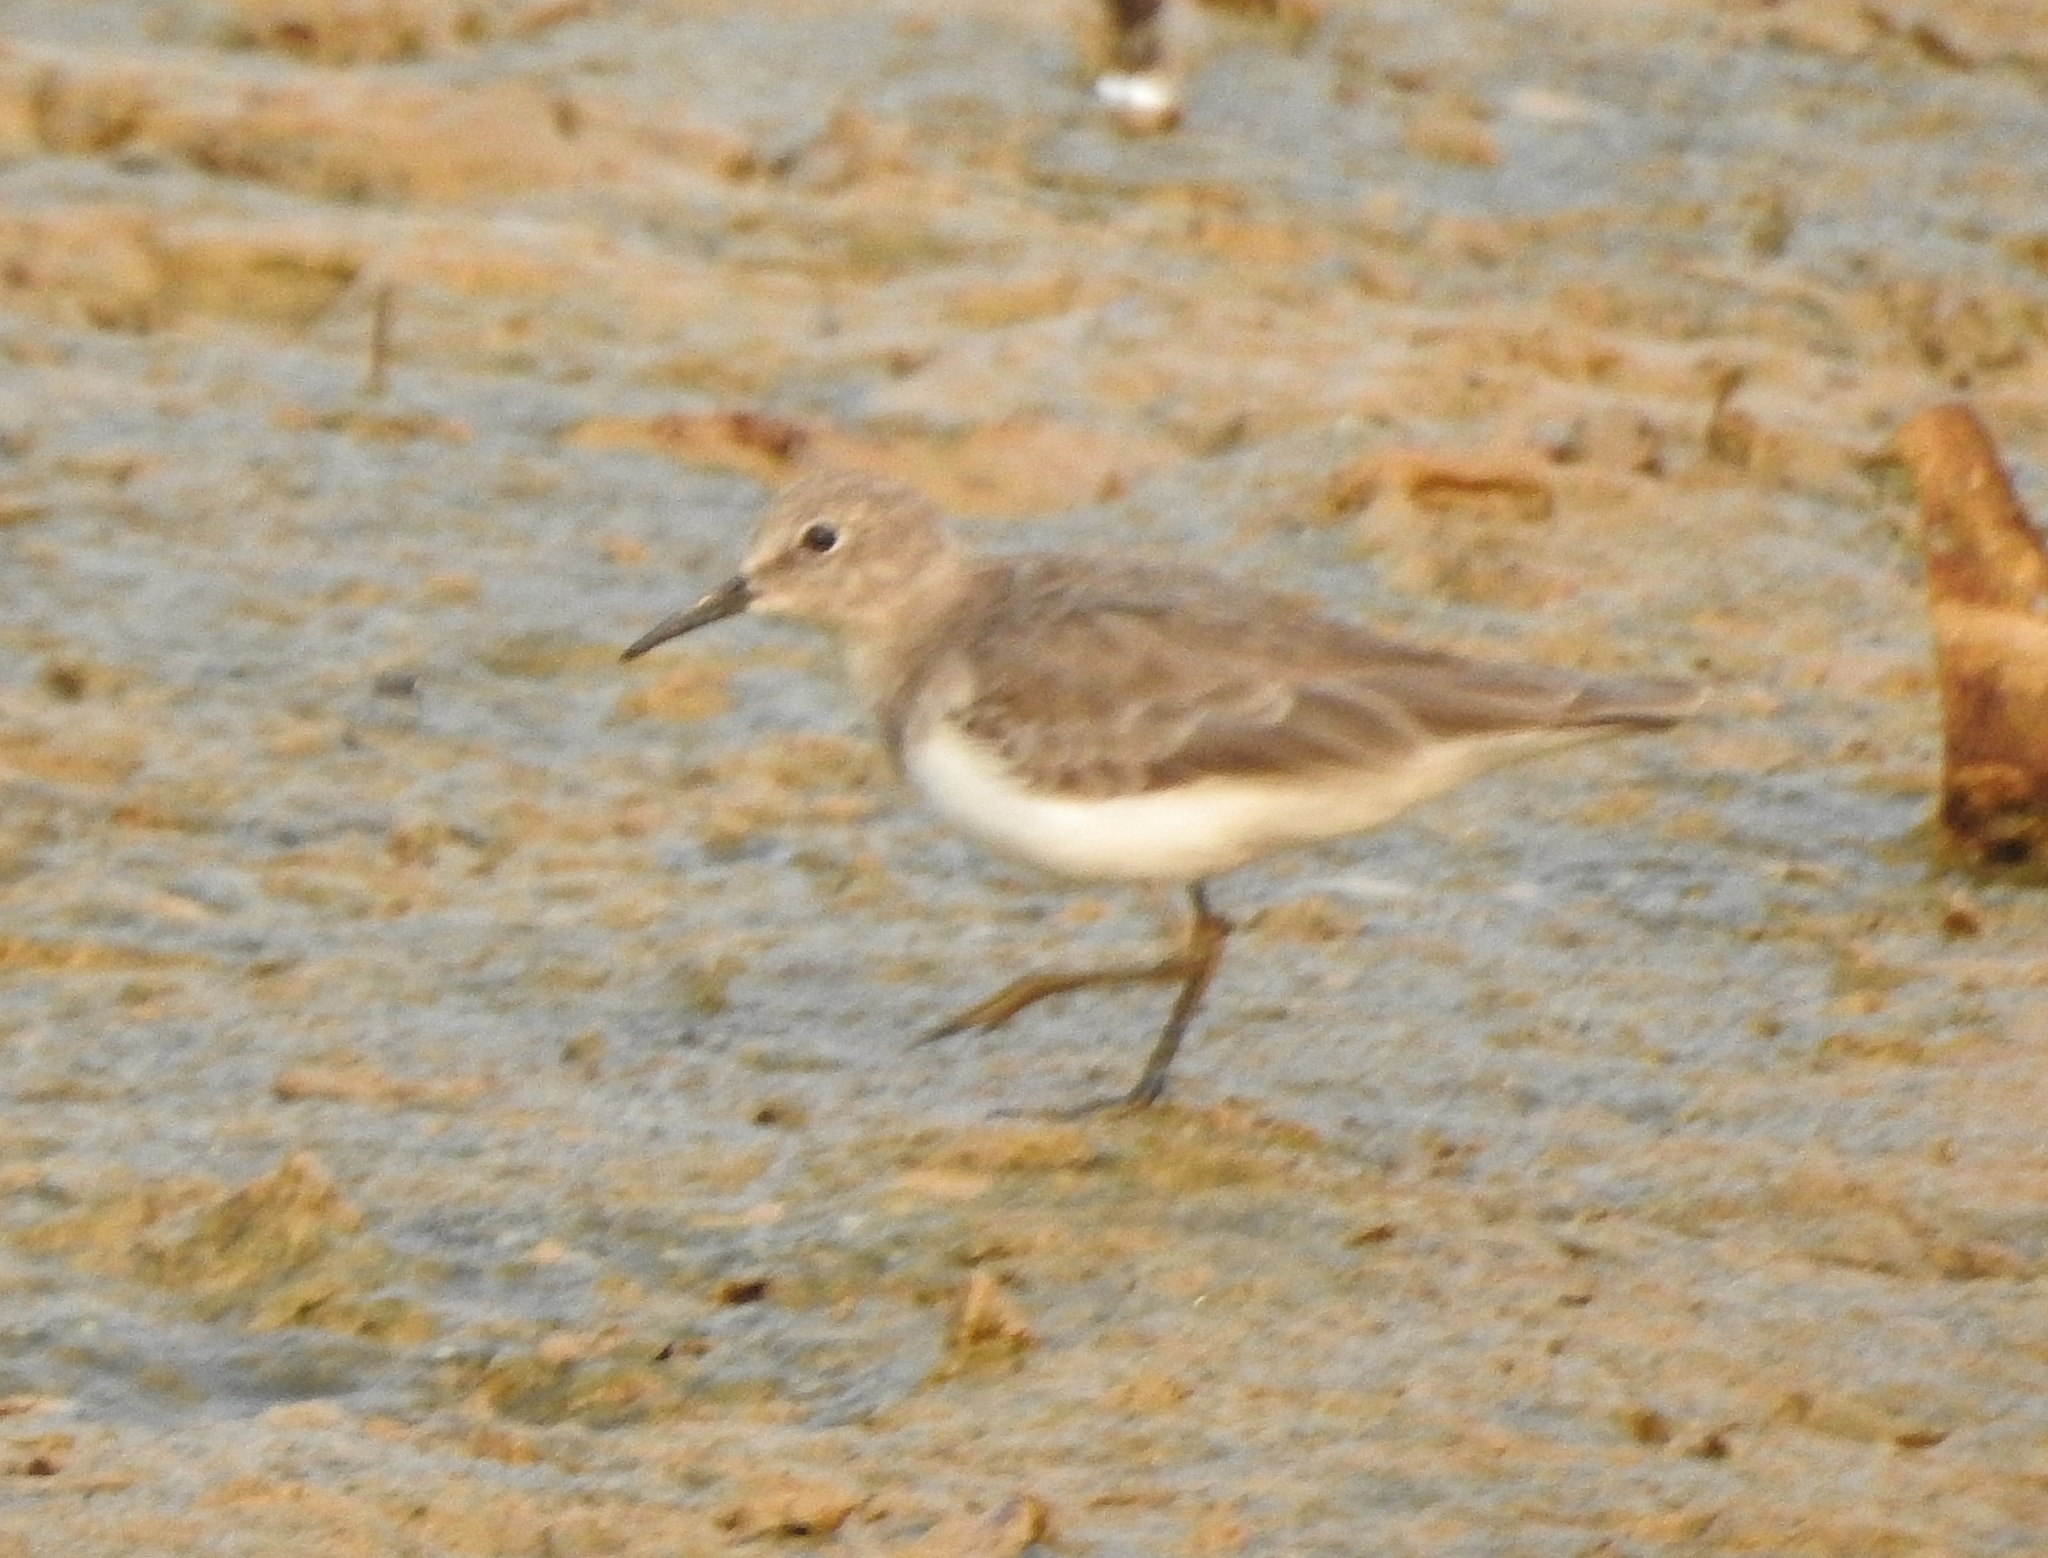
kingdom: Animalia
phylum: Chordata
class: Aves
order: Charadriiformes
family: Scolopacidae
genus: Calidris
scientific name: Calidris temminckii
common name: Temminck's stint
